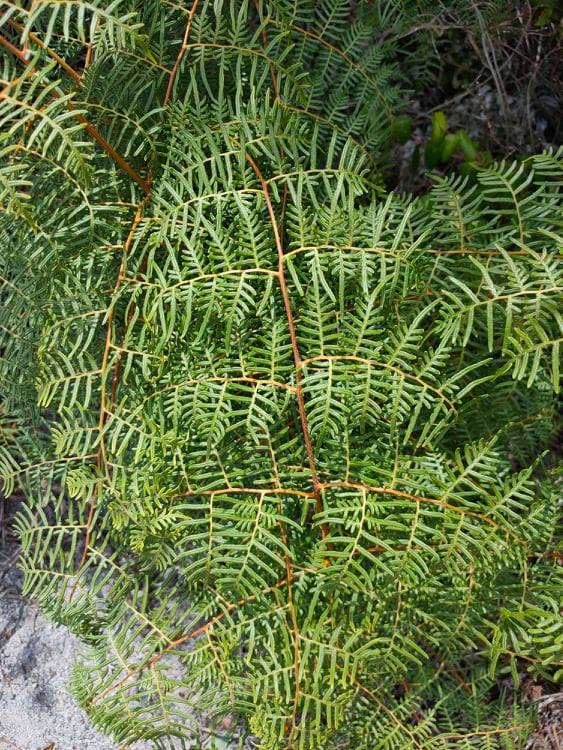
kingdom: Plantae
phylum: Tracheophyta
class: Polypodiopsida
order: Polypodiales
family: Dennstaedtiaceae
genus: Pteridium
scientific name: Pteridium esculentum
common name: Bracken fern
